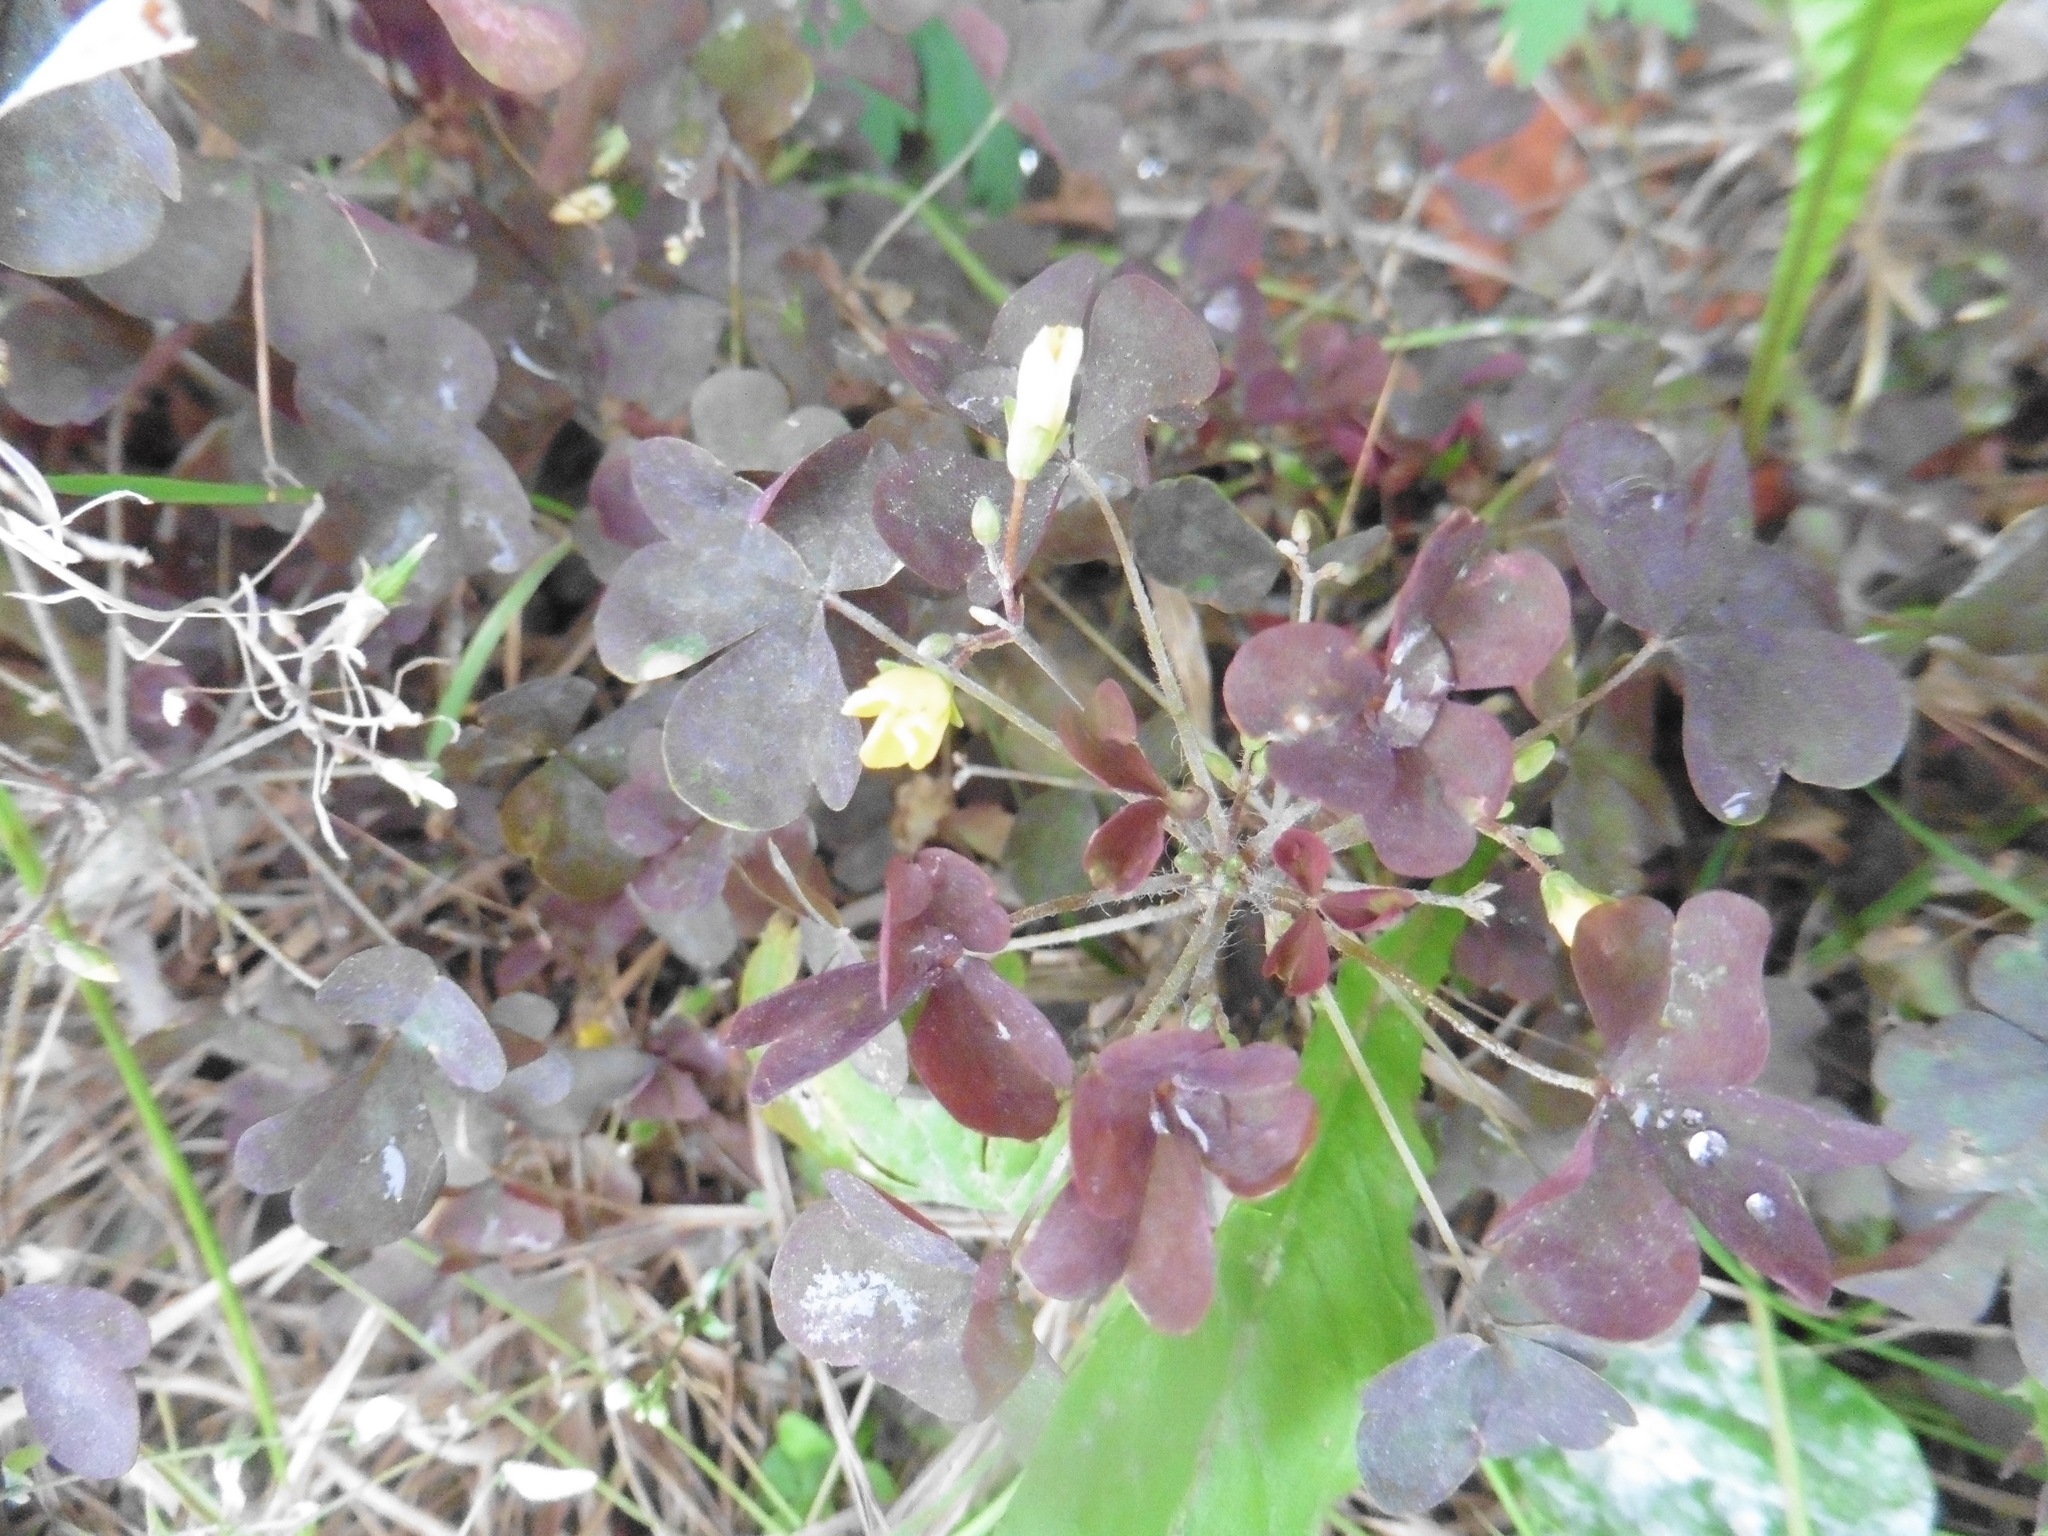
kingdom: Plantae
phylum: Tracheophyta
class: Magnoliopsida
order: Oxalidales
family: Oxalidaceae
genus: Oxalis
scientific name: Oxalis stricta
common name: Upright yellow-sorrel
